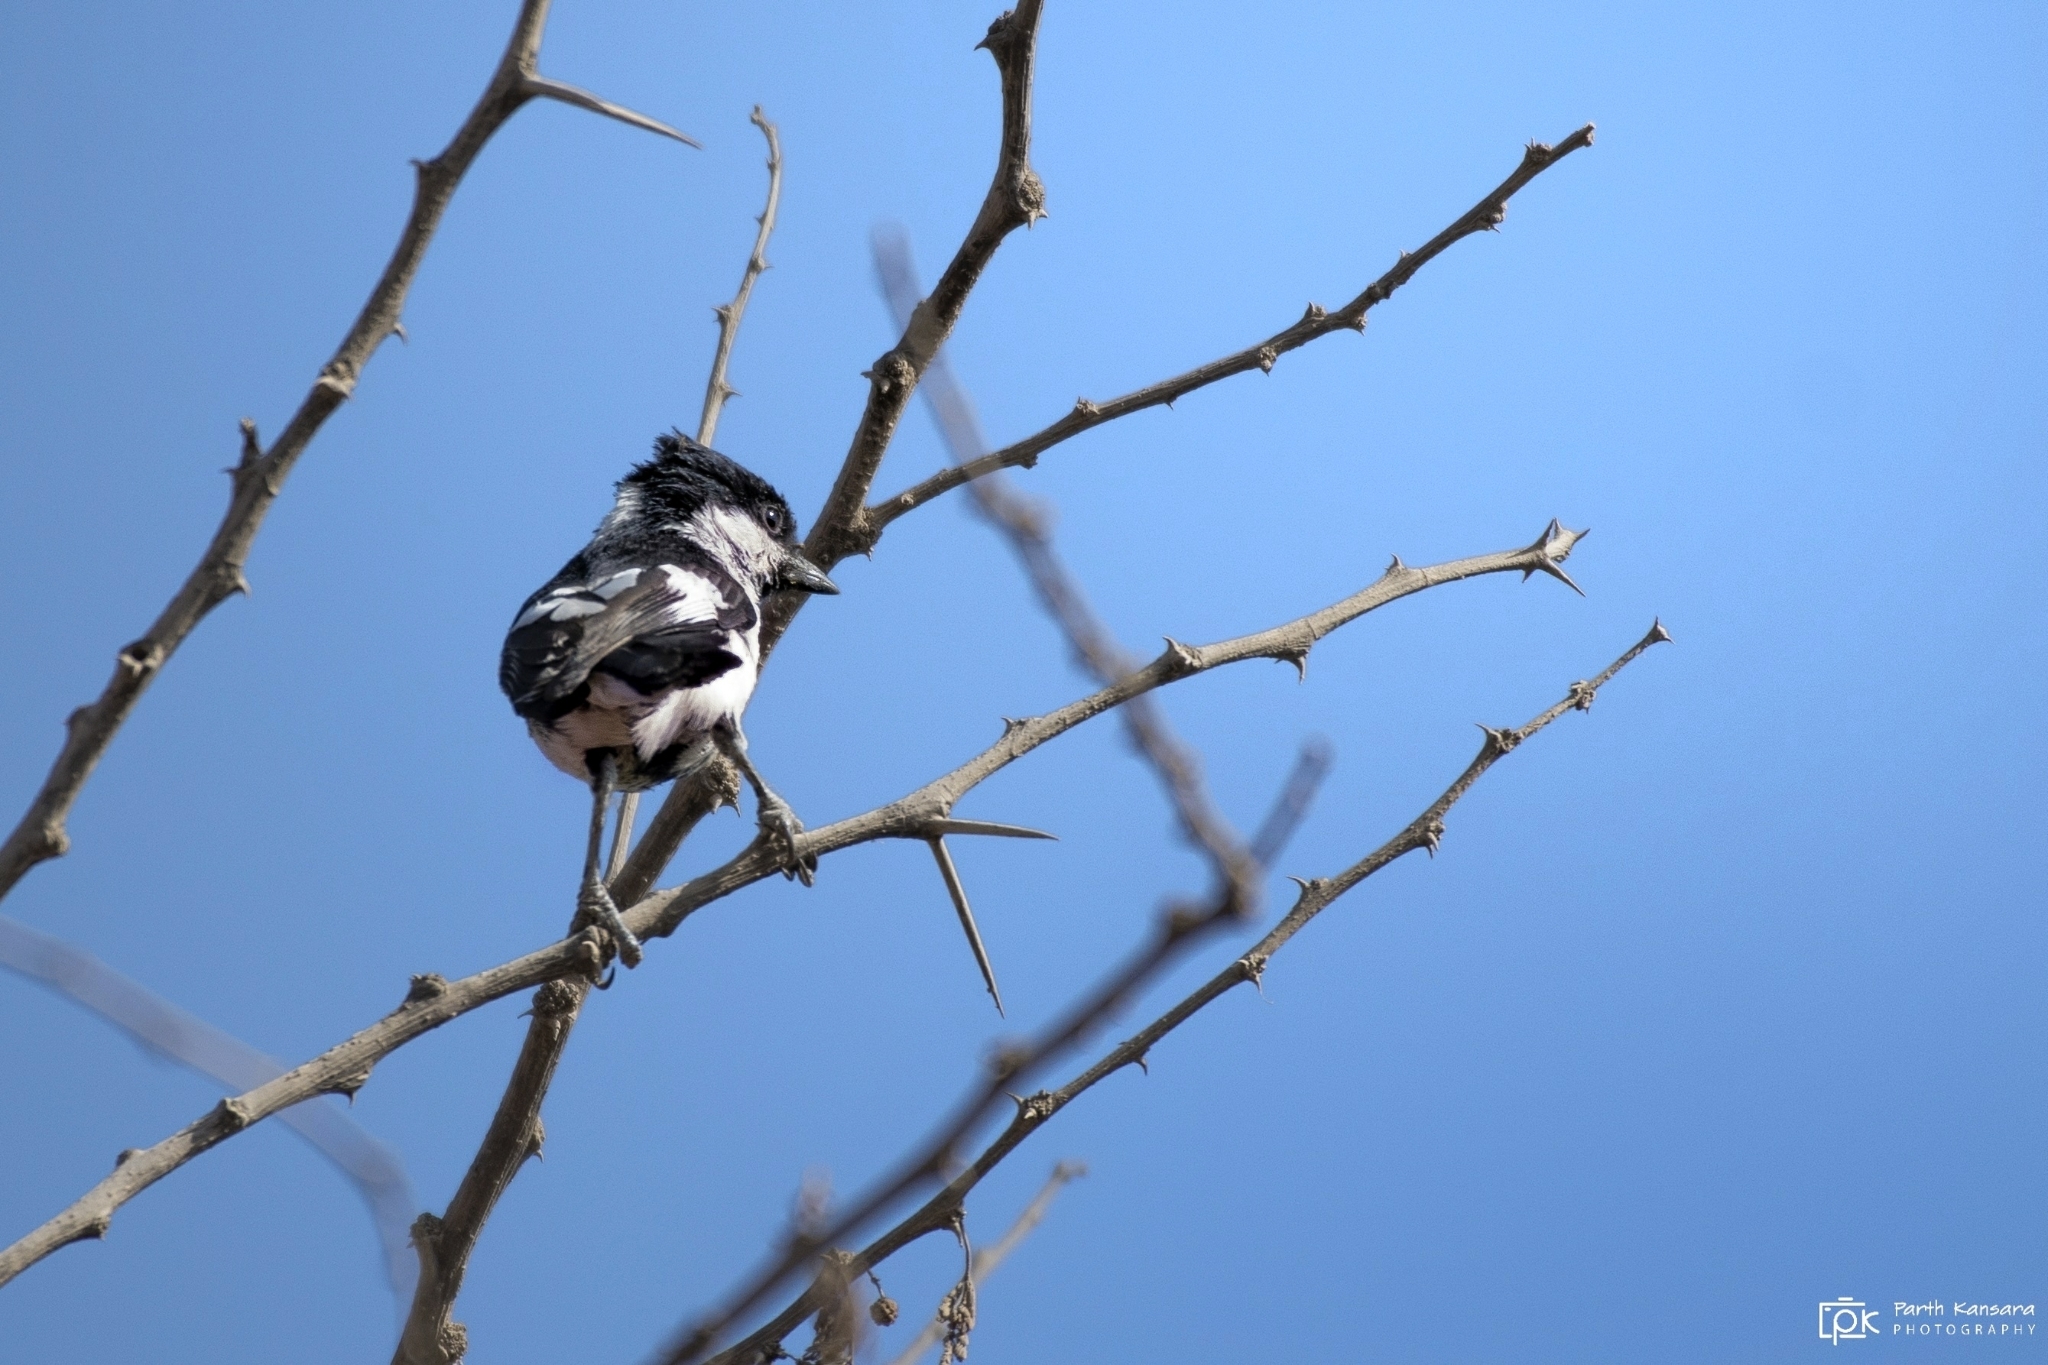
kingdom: Animalia
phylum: Chordata
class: Aves
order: Passeriformes
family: Paridae
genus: Parus
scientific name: Parus nuchalis
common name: White-naped tit
